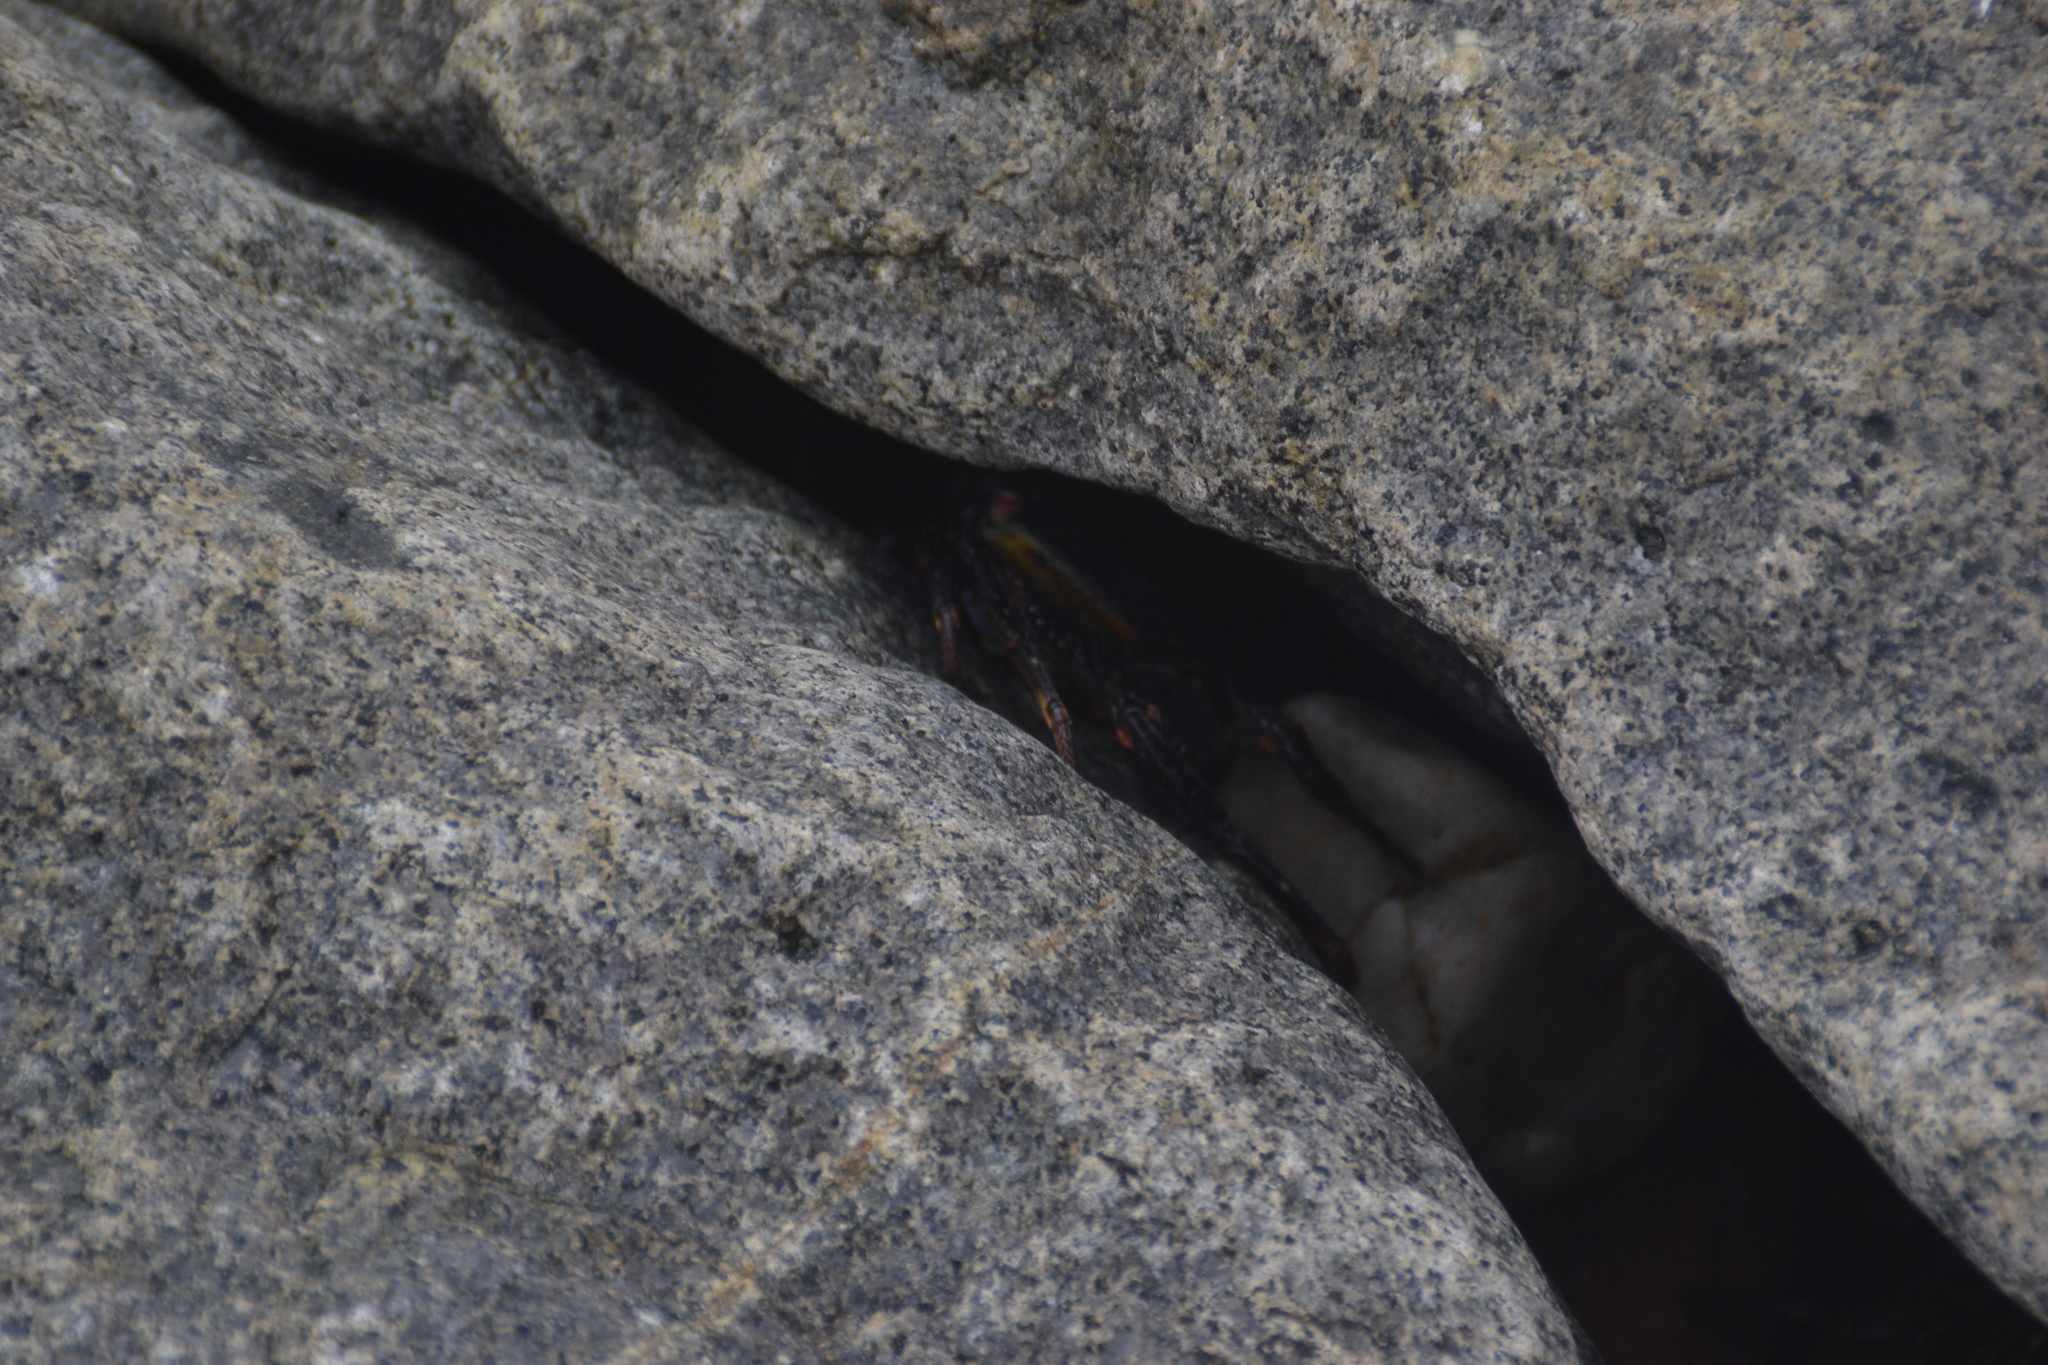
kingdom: Animalia
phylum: Arthropoda
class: Malacostraca
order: Decapoda
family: Grapsidae
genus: Grapsus
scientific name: Grapsus grapsus
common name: Sally lightfoot
